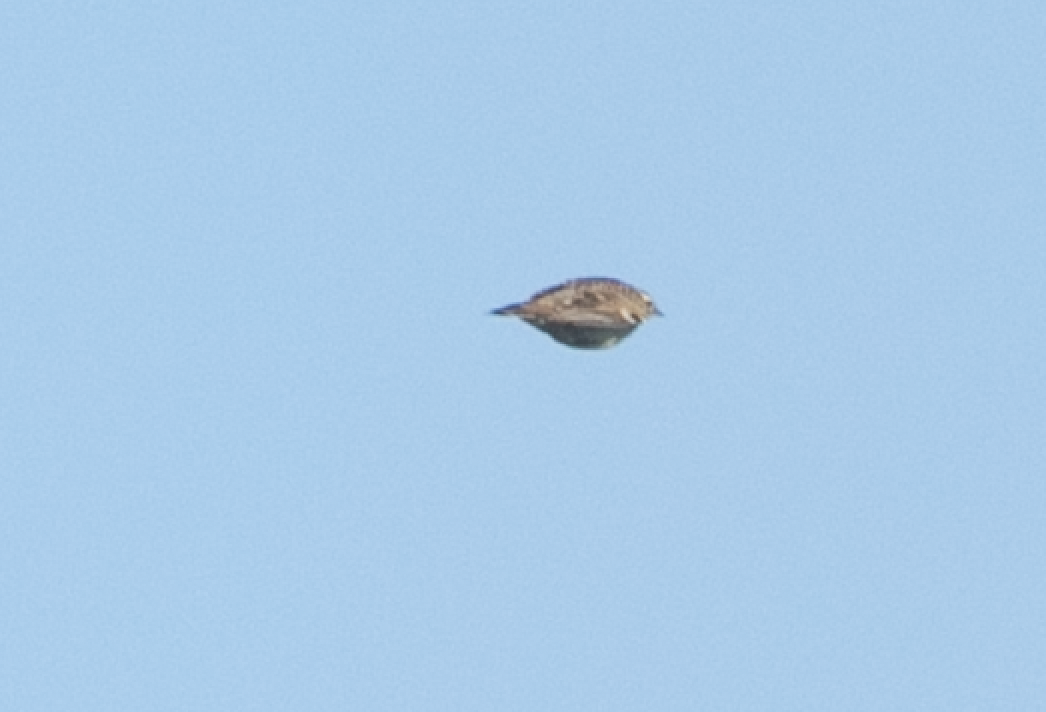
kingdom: Animalia
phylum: Chordata
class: Aves
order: Passeriformes
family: Alaudidae
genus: Lullula
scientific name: Lullula arborea
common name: Woodlark
